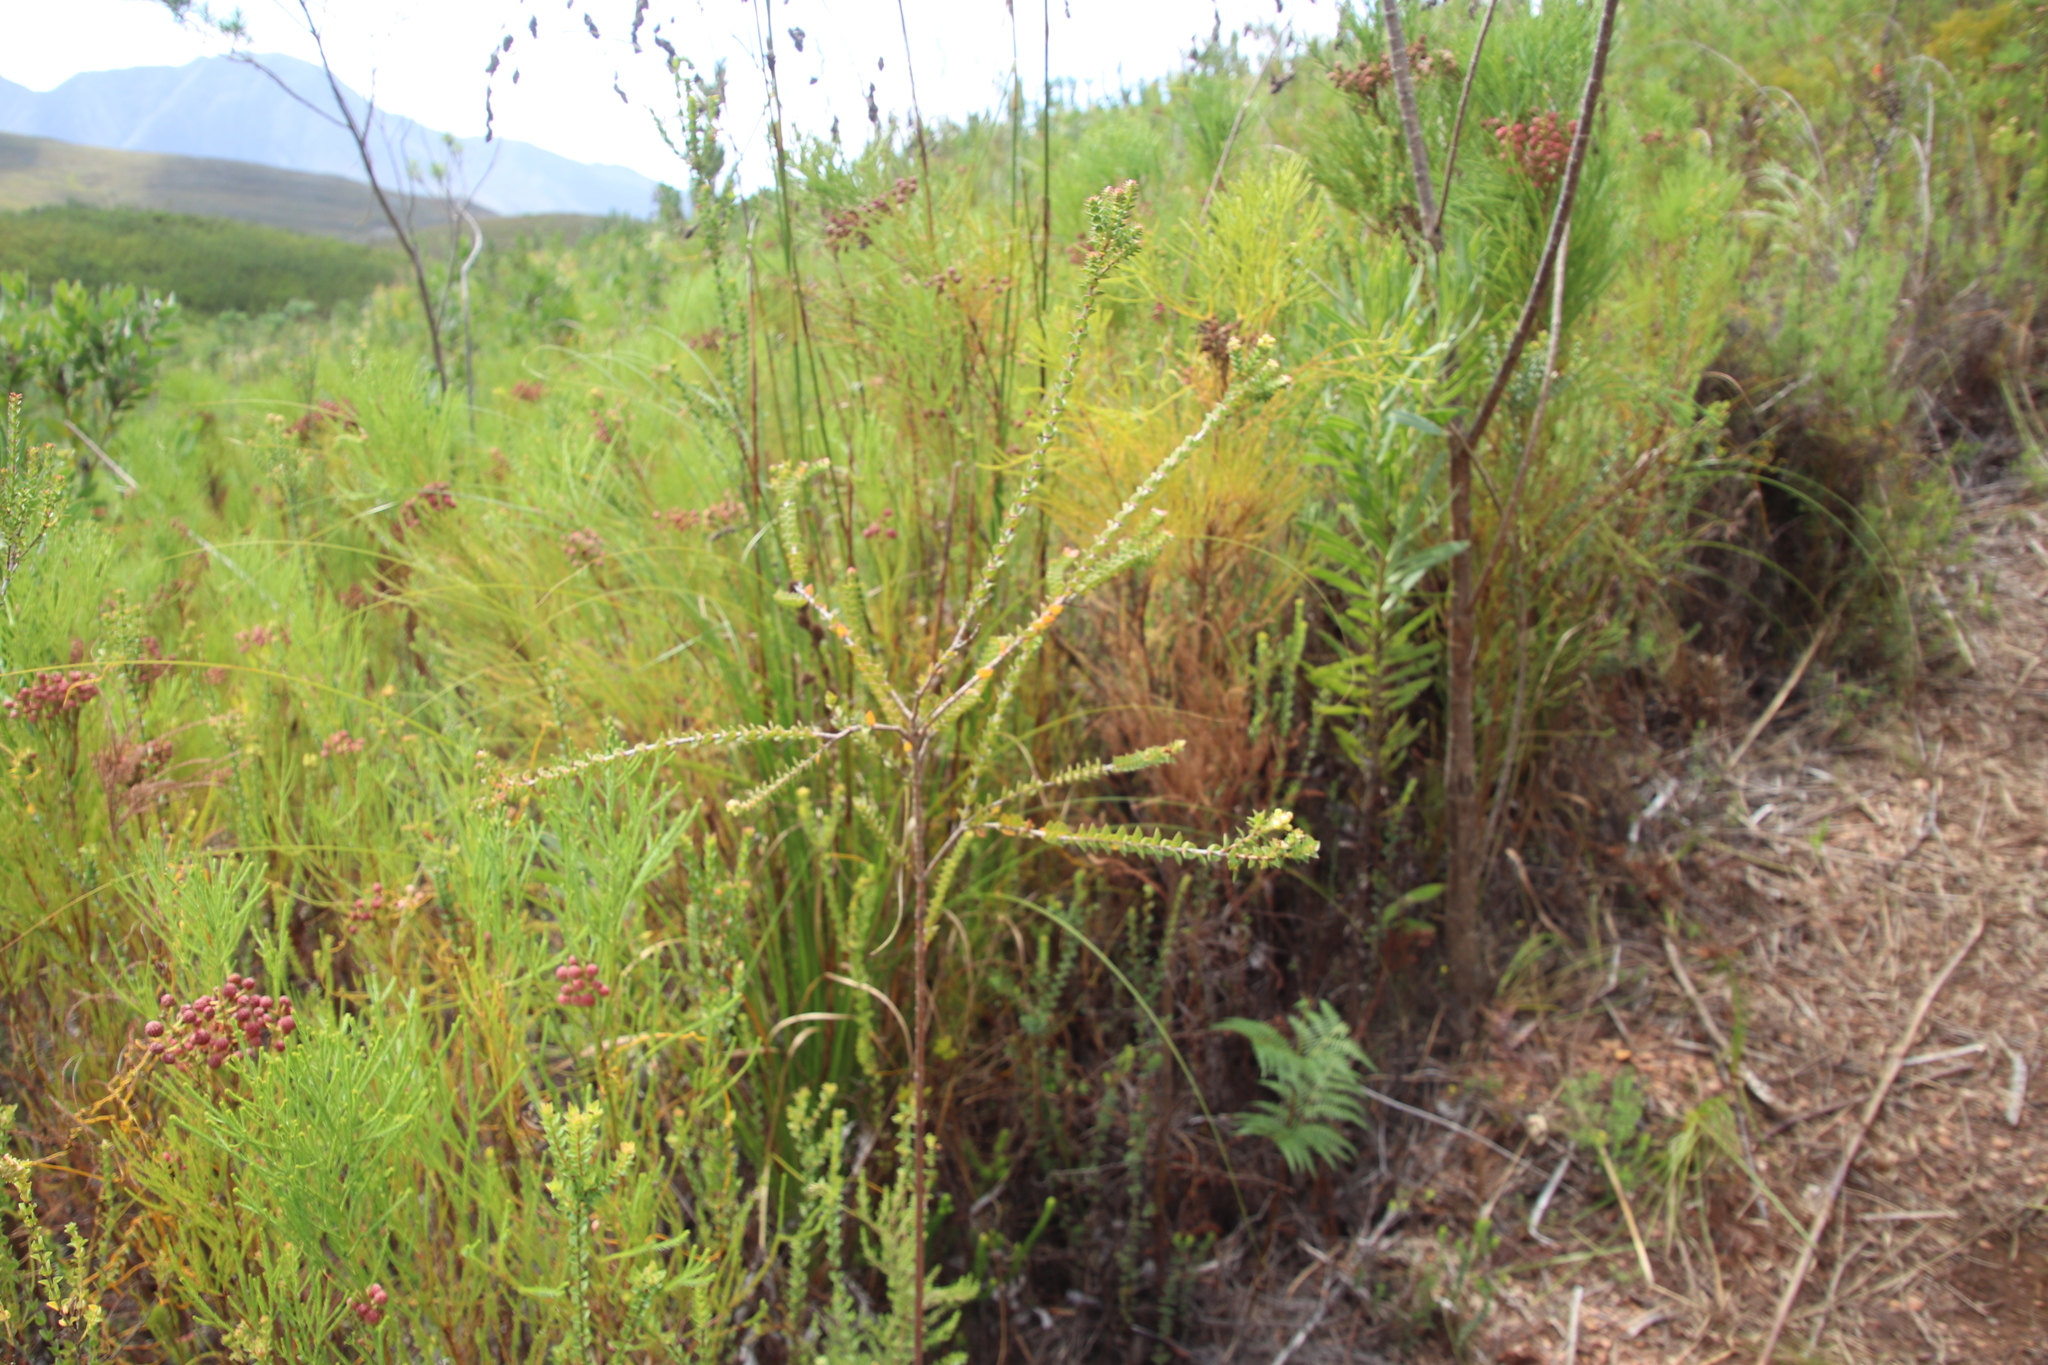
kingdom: Plantae
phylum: Tracheophyta
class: Magnoliopsida
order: Myrtales
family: Penaeaceae
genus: Penaea
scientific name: Penaea cneorum
